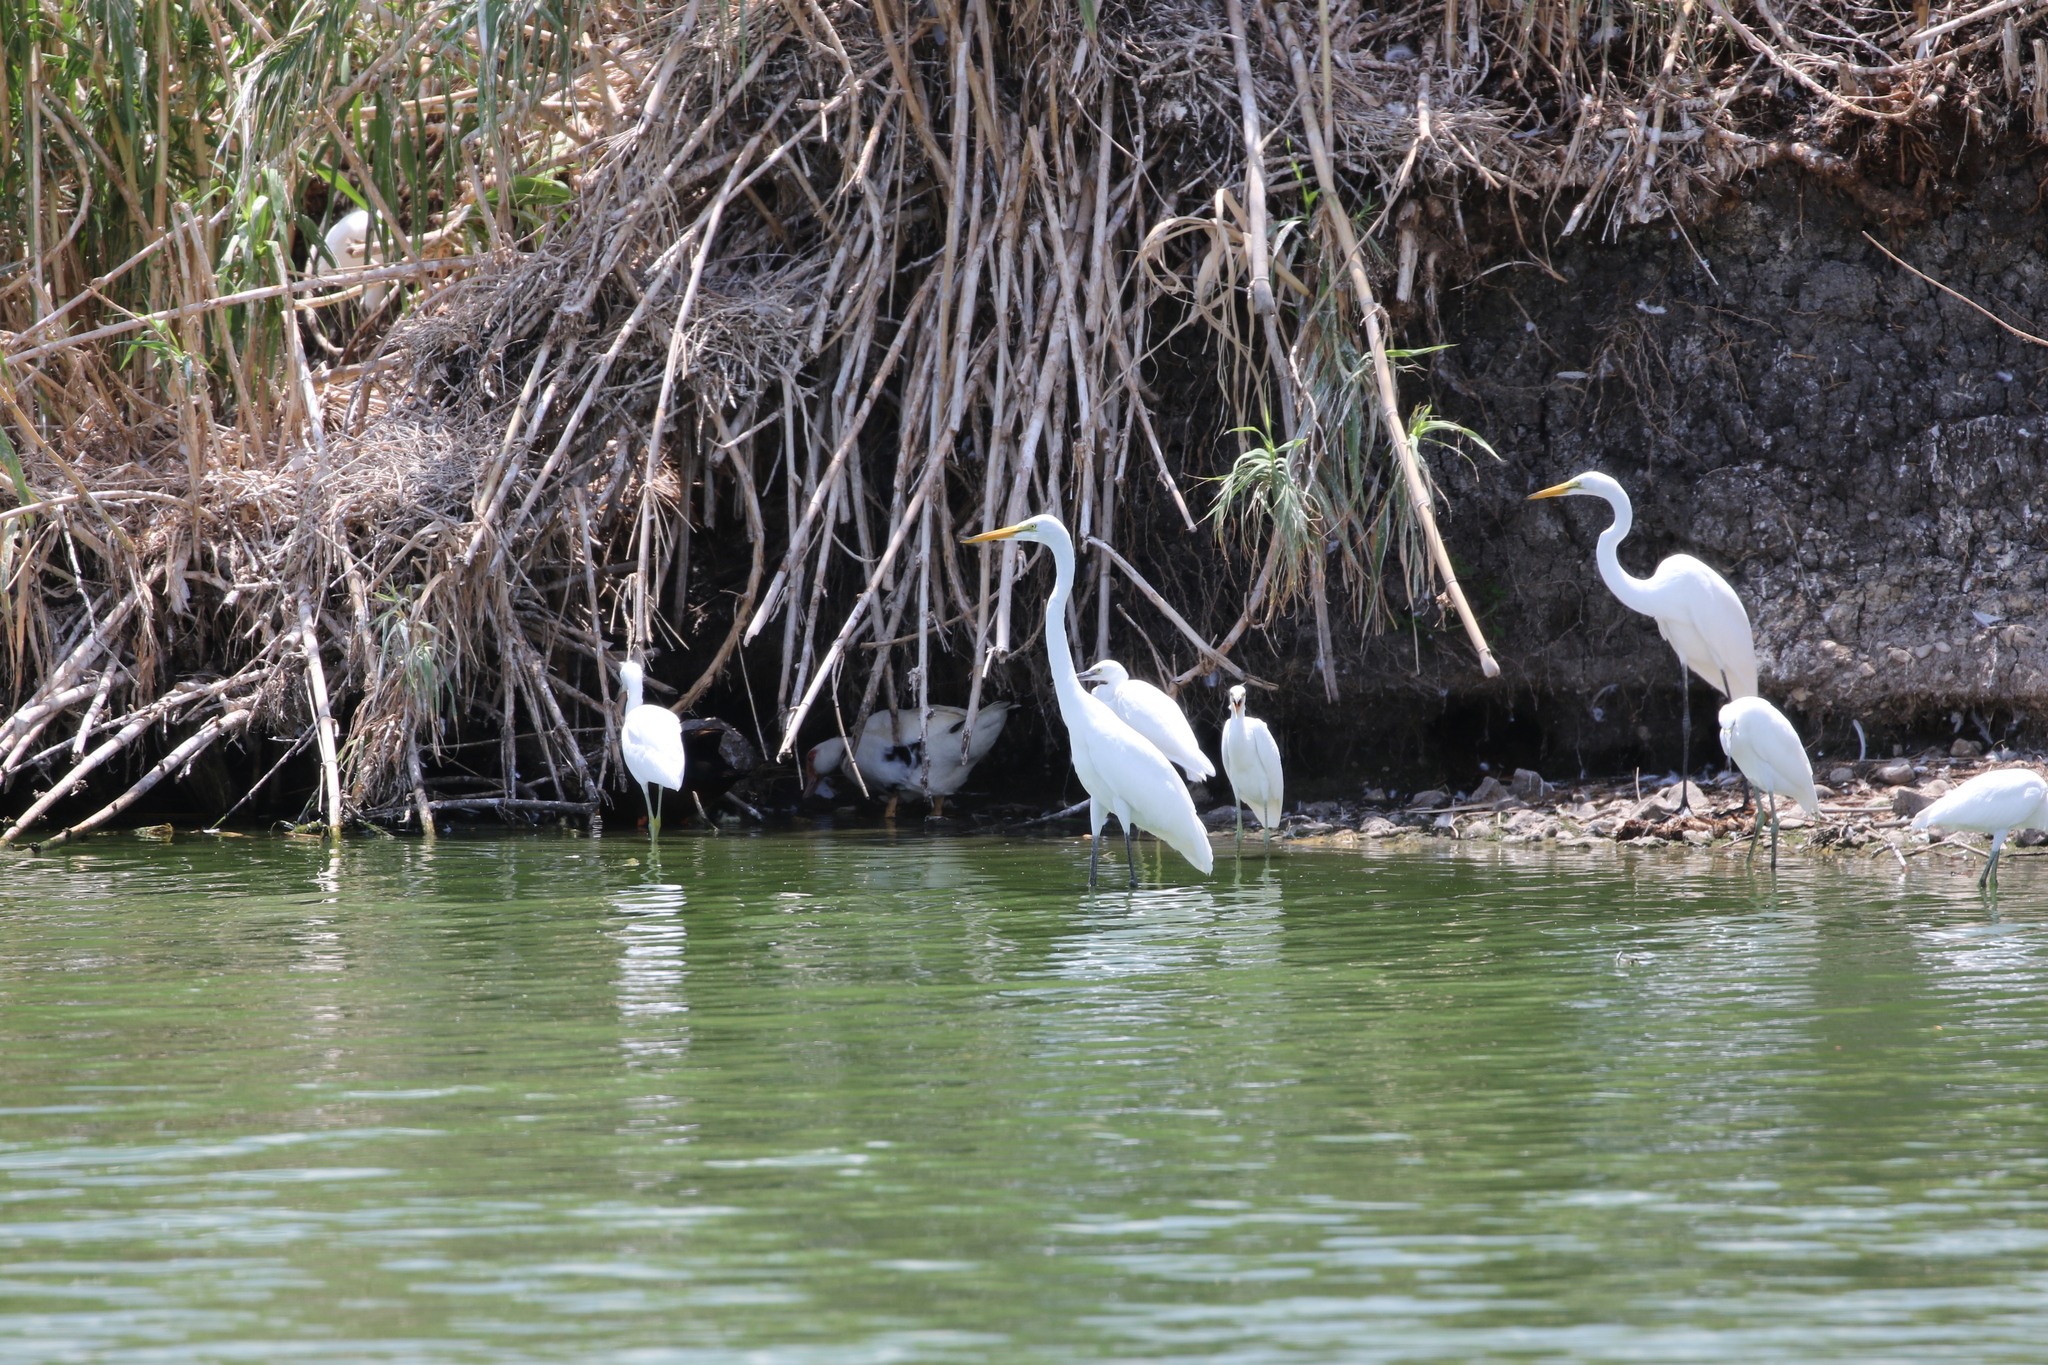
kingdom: Animalia
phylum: Chordata
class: Aves
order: Pelecaniformes
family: Ardeidae
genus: Ardea
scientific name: Ardea alba
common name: Great egret
